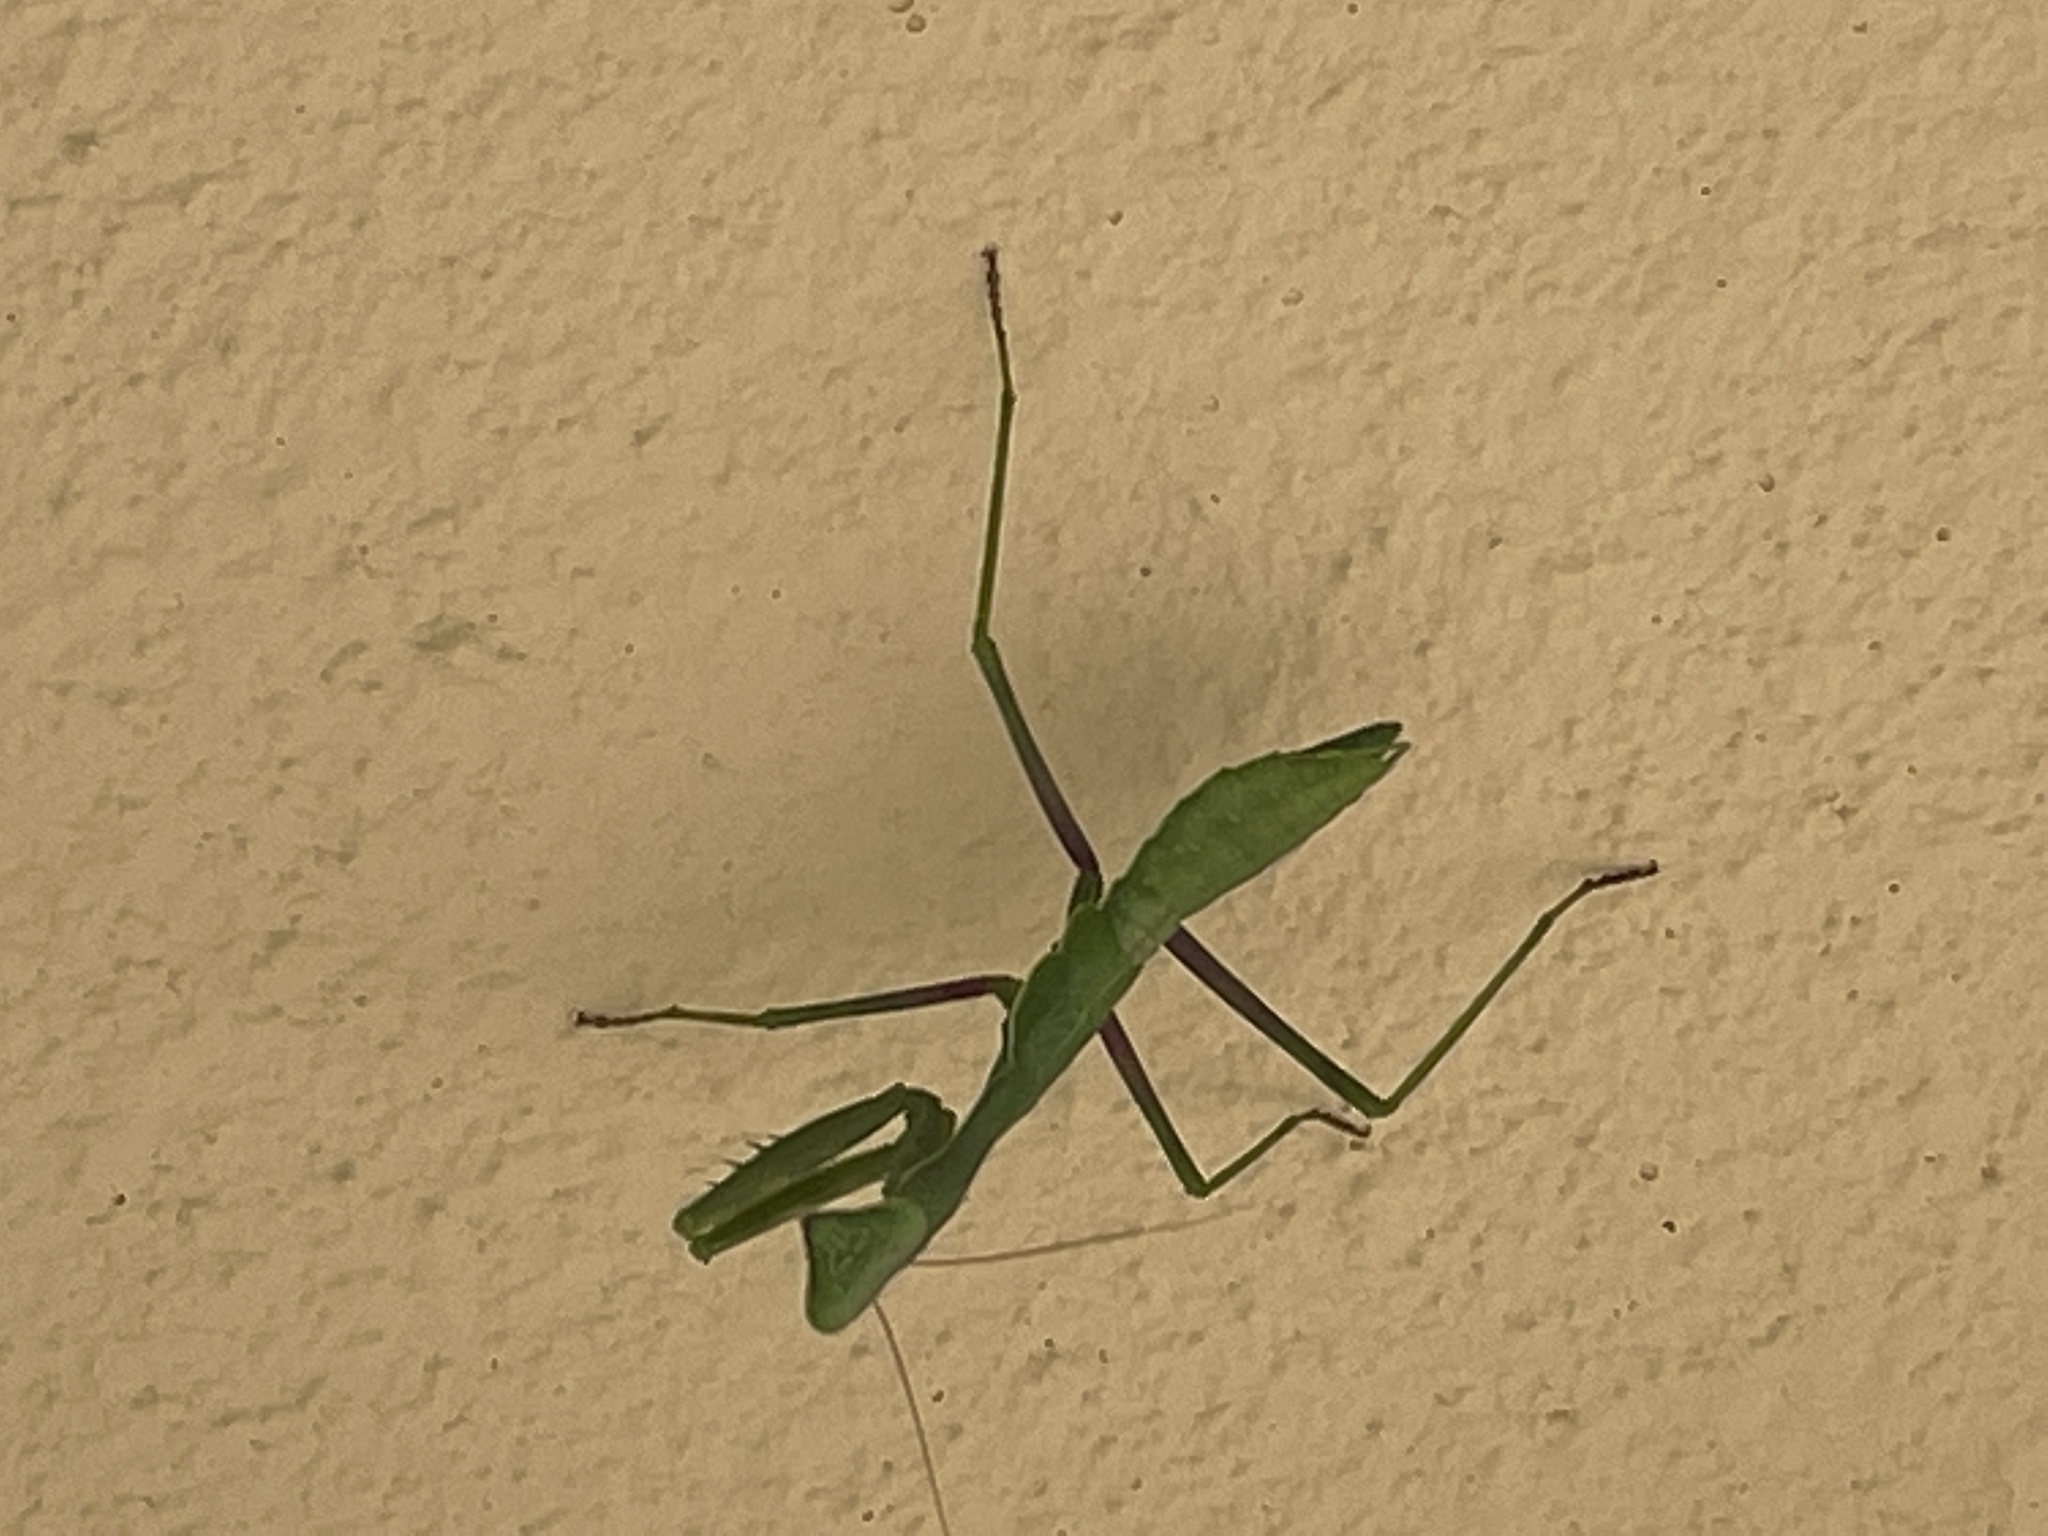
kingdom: Animalia
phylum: Arthropoda
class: Insecta
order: Mantodea
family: Mantidae
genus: Stagmomantis
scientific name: Stagmomantis limbata
